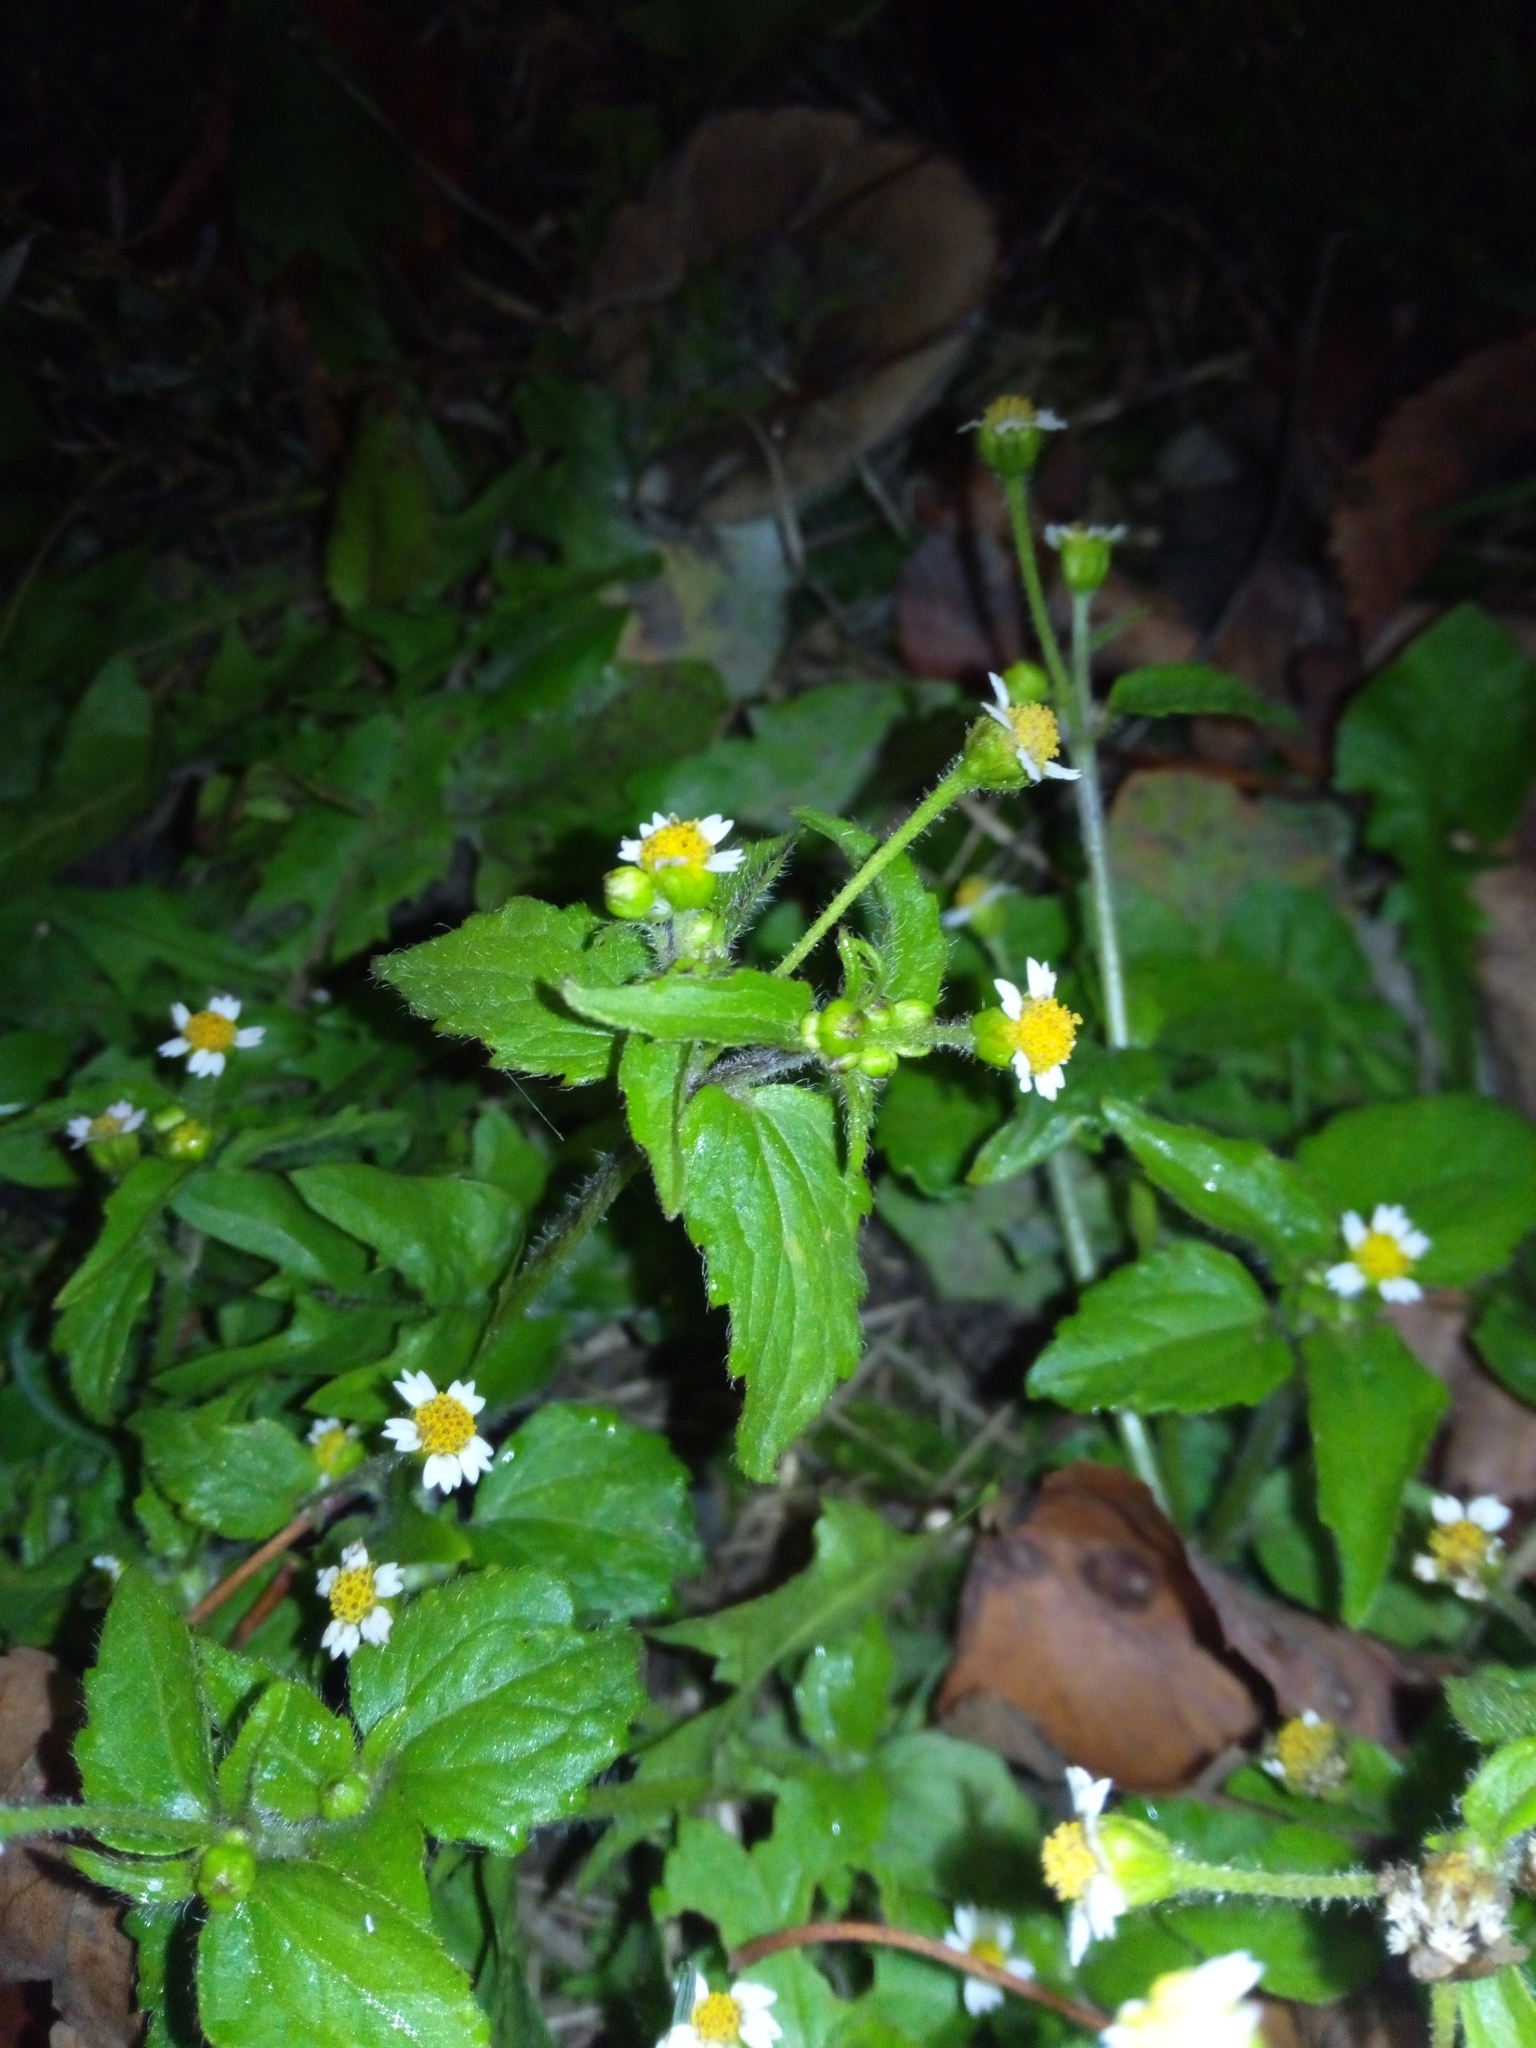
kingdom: Plantae
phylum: Tracheophyta
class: Magnoliopsida
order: Asterales
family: Asteraceae
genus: Galinsoga
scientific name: Galinsoga quadriradiata
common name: Shaggy soldier
